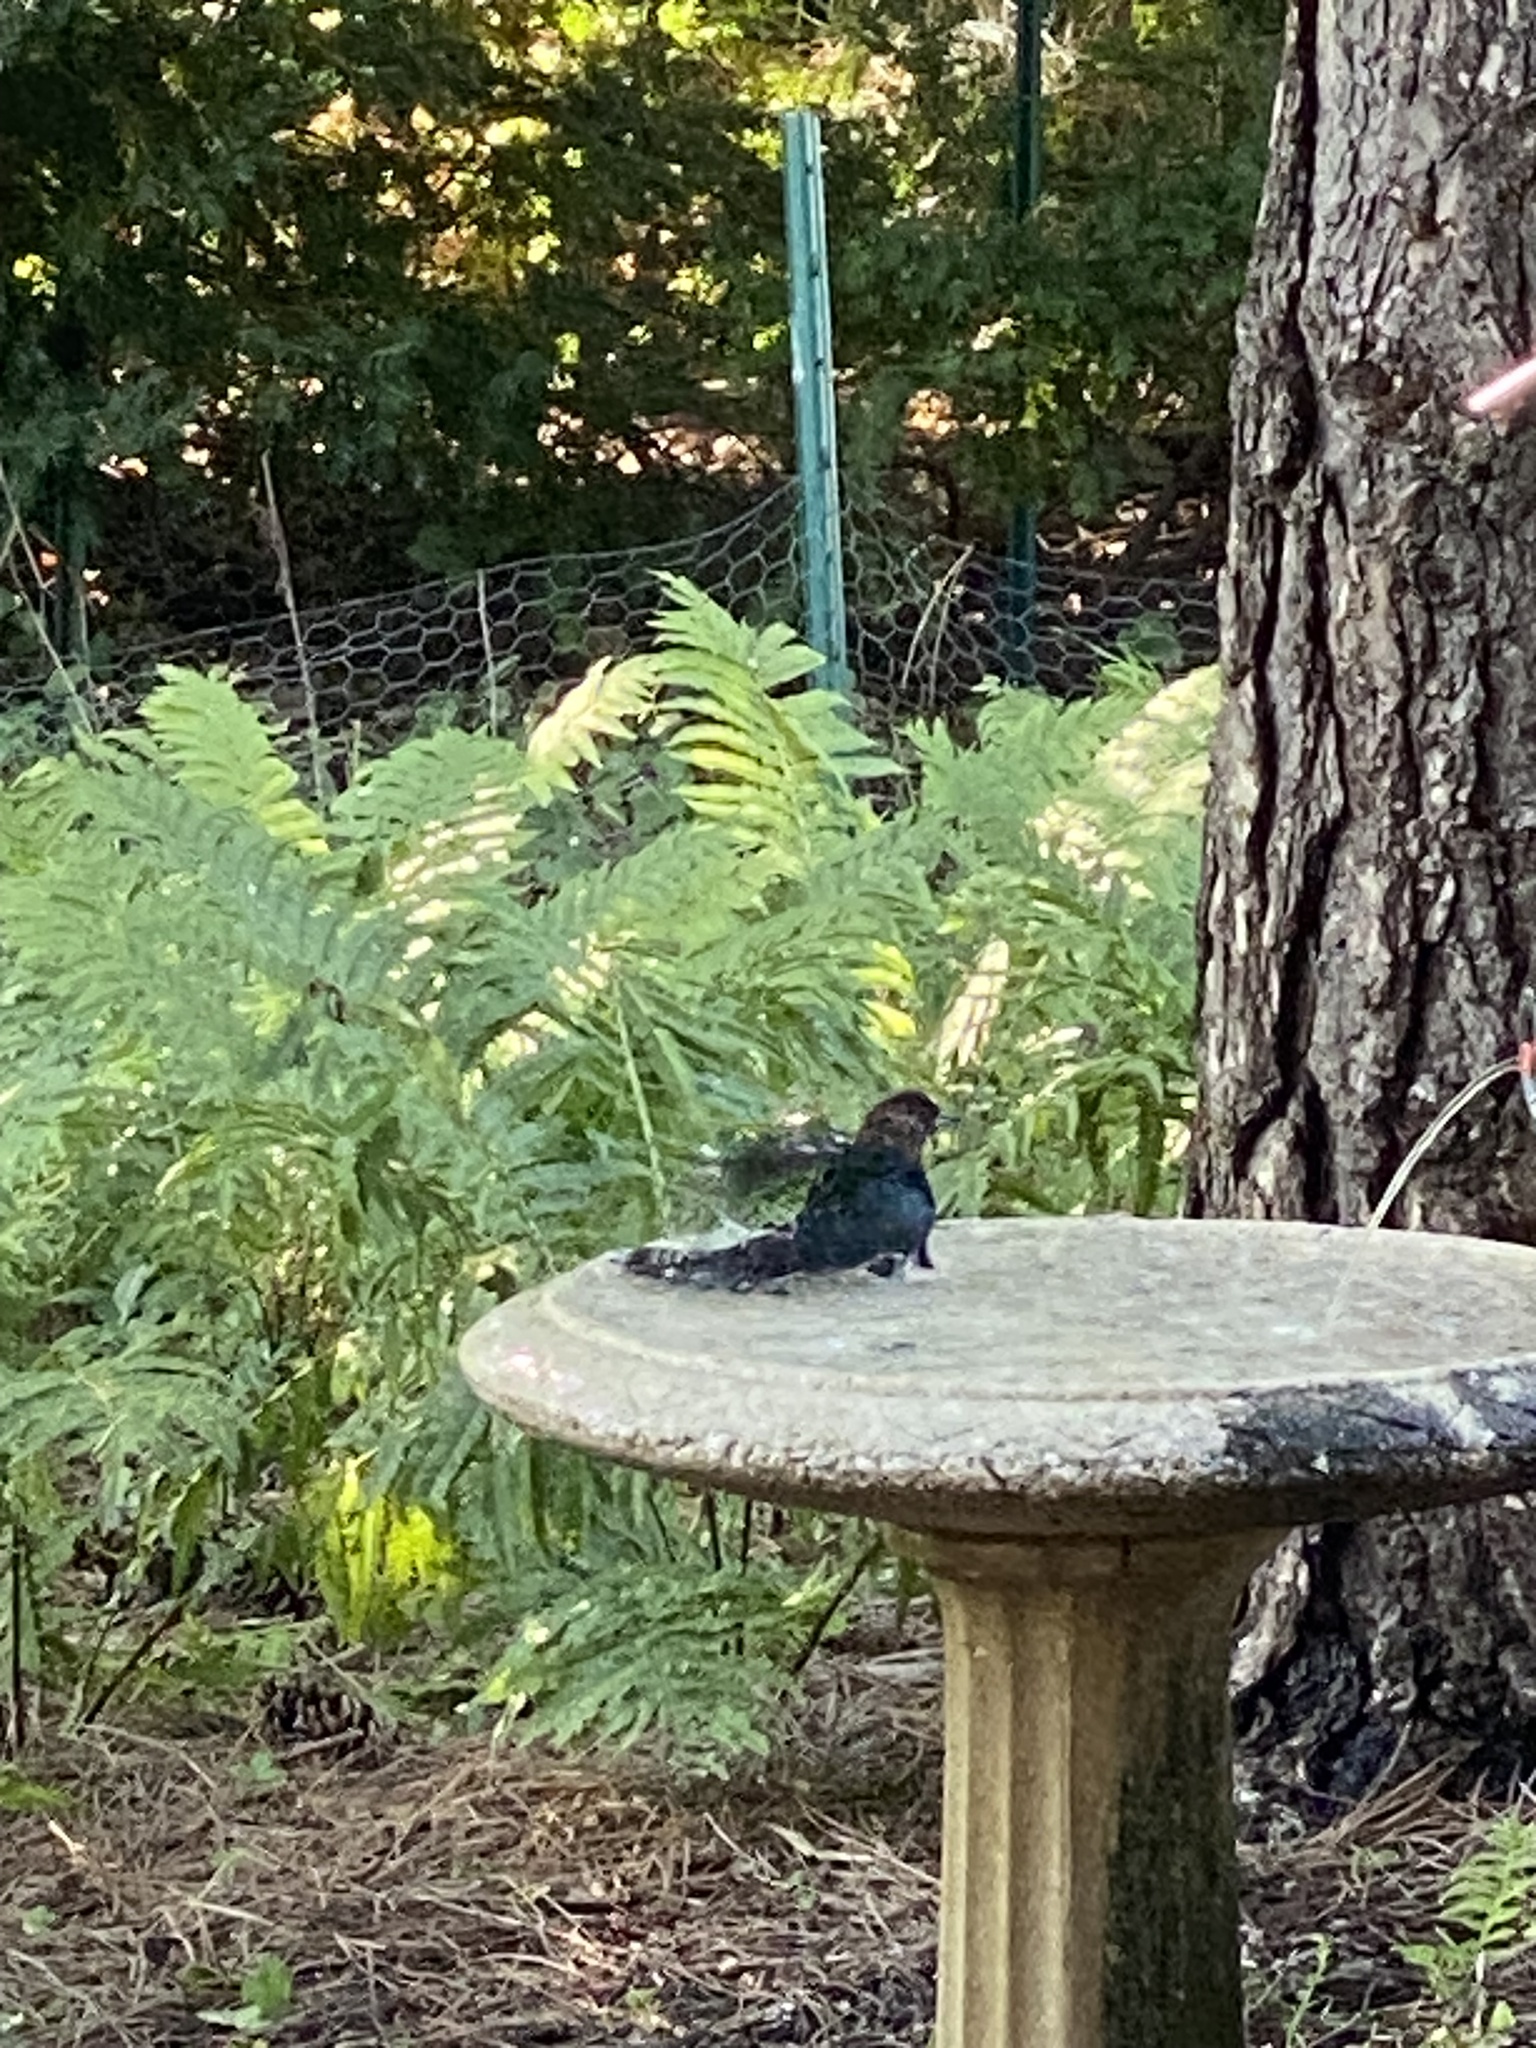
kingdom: Animalia
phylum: Chordata
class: Aves
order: Passeriformes
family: Icteridae
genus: Molothrus
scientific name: Molothrus ater
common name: Brown-headed cowbird
